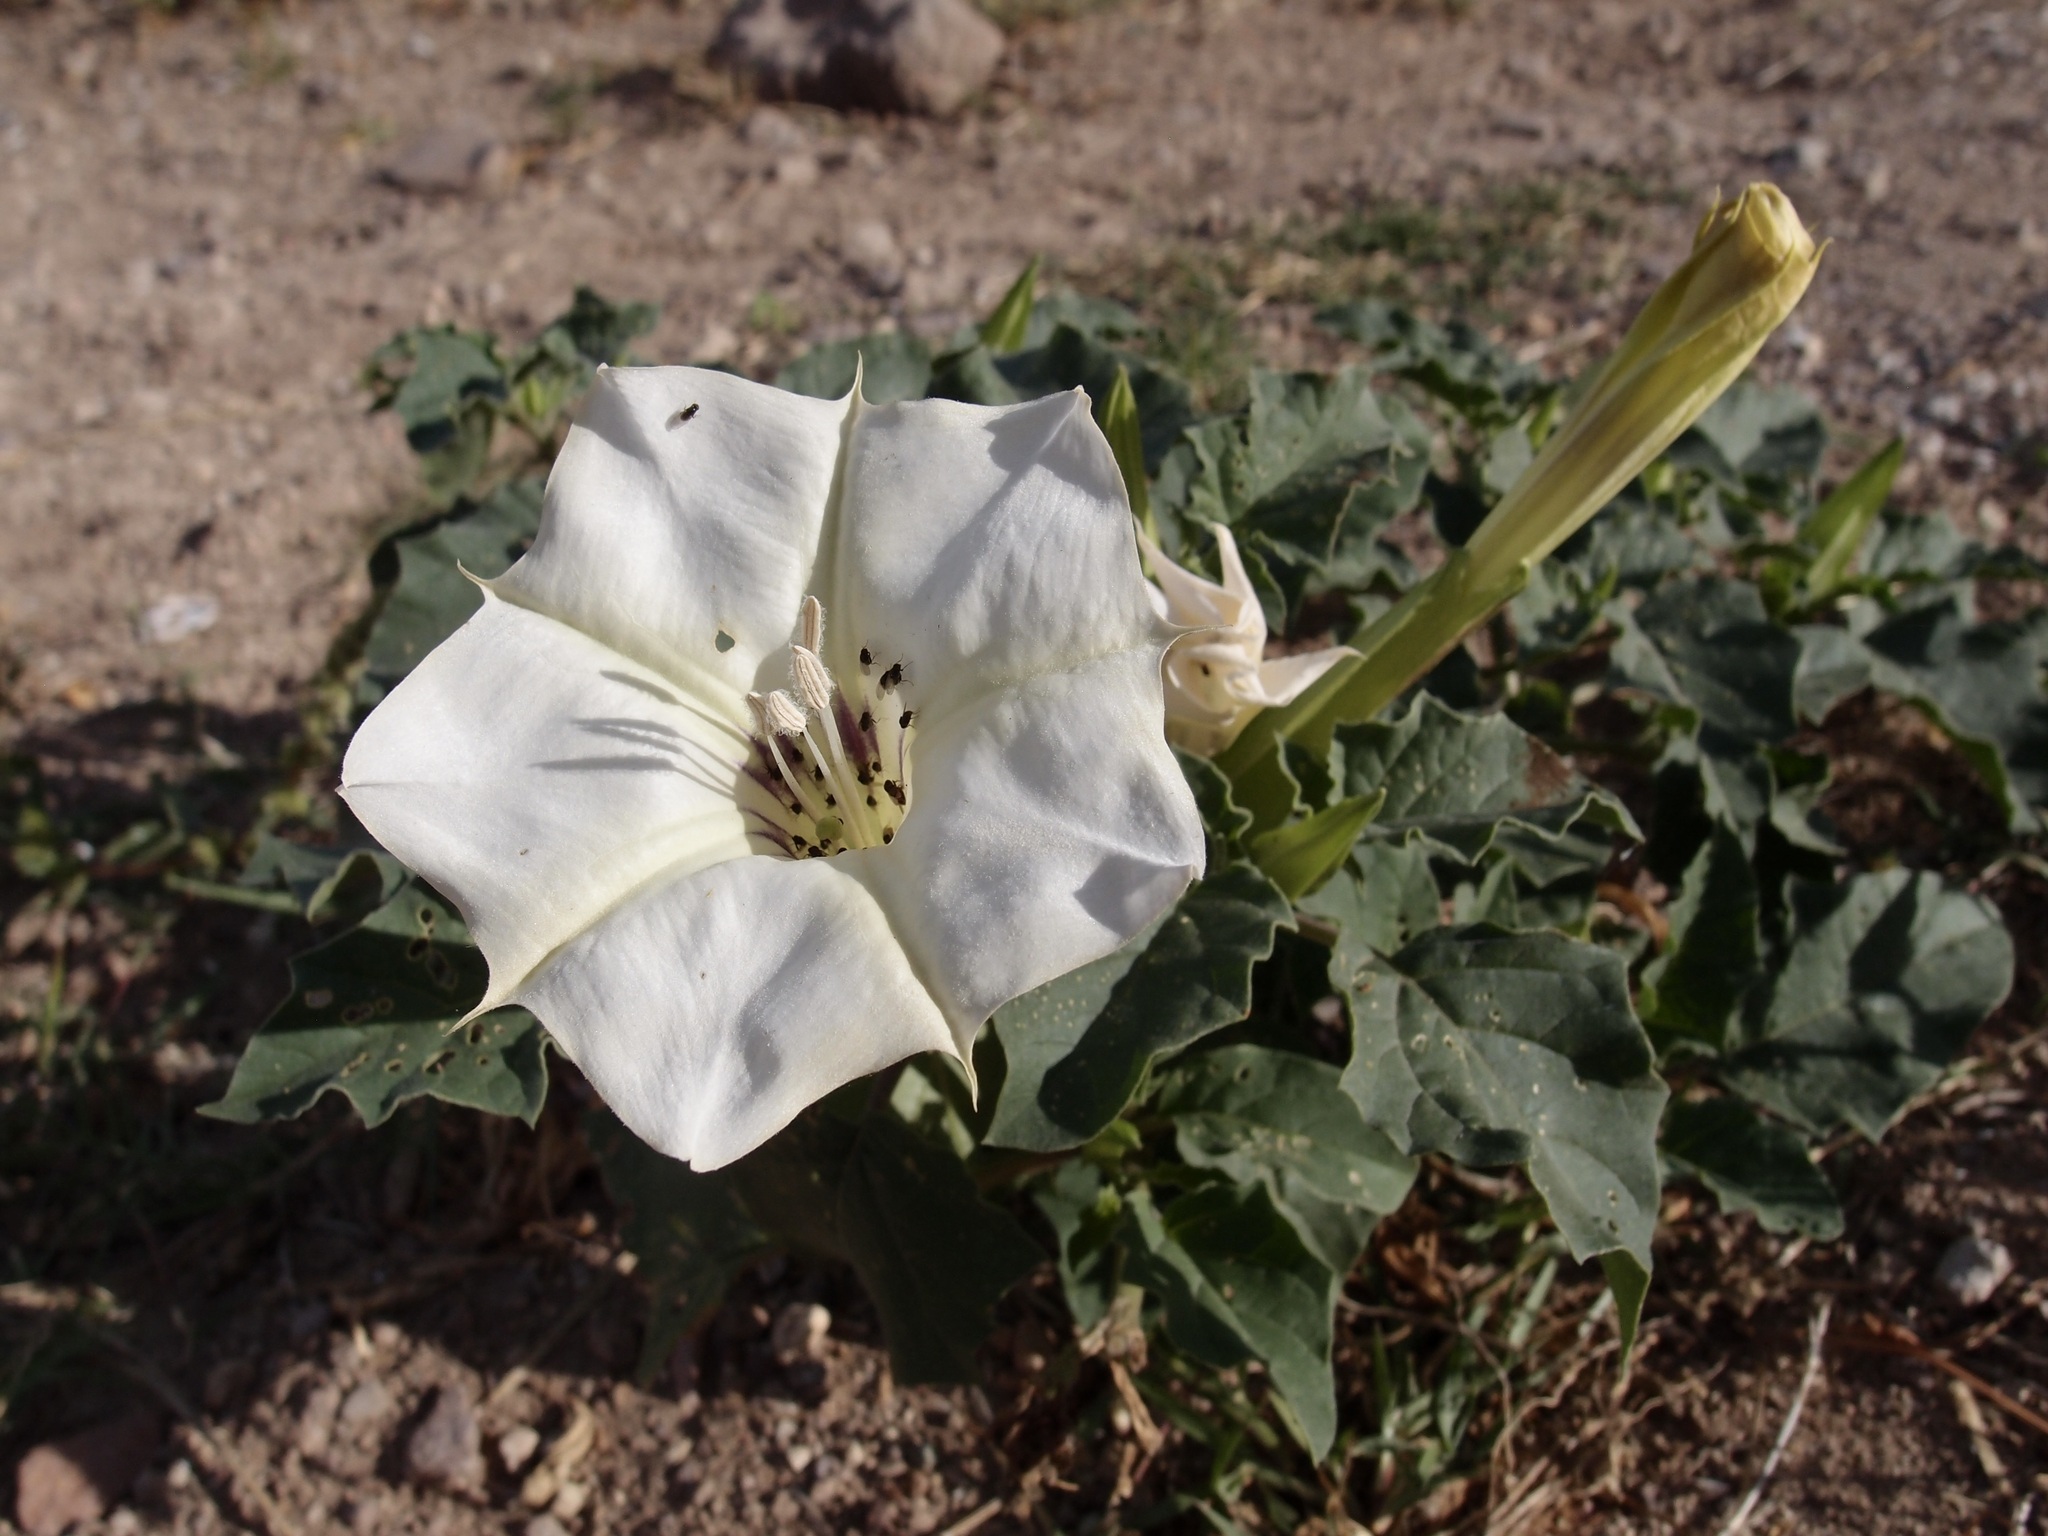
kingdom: Plantae
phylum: Tracheophyta
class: Magnoliopsida
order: Solanales
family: Solanaceae
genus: Datura
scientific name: Datura discolor
